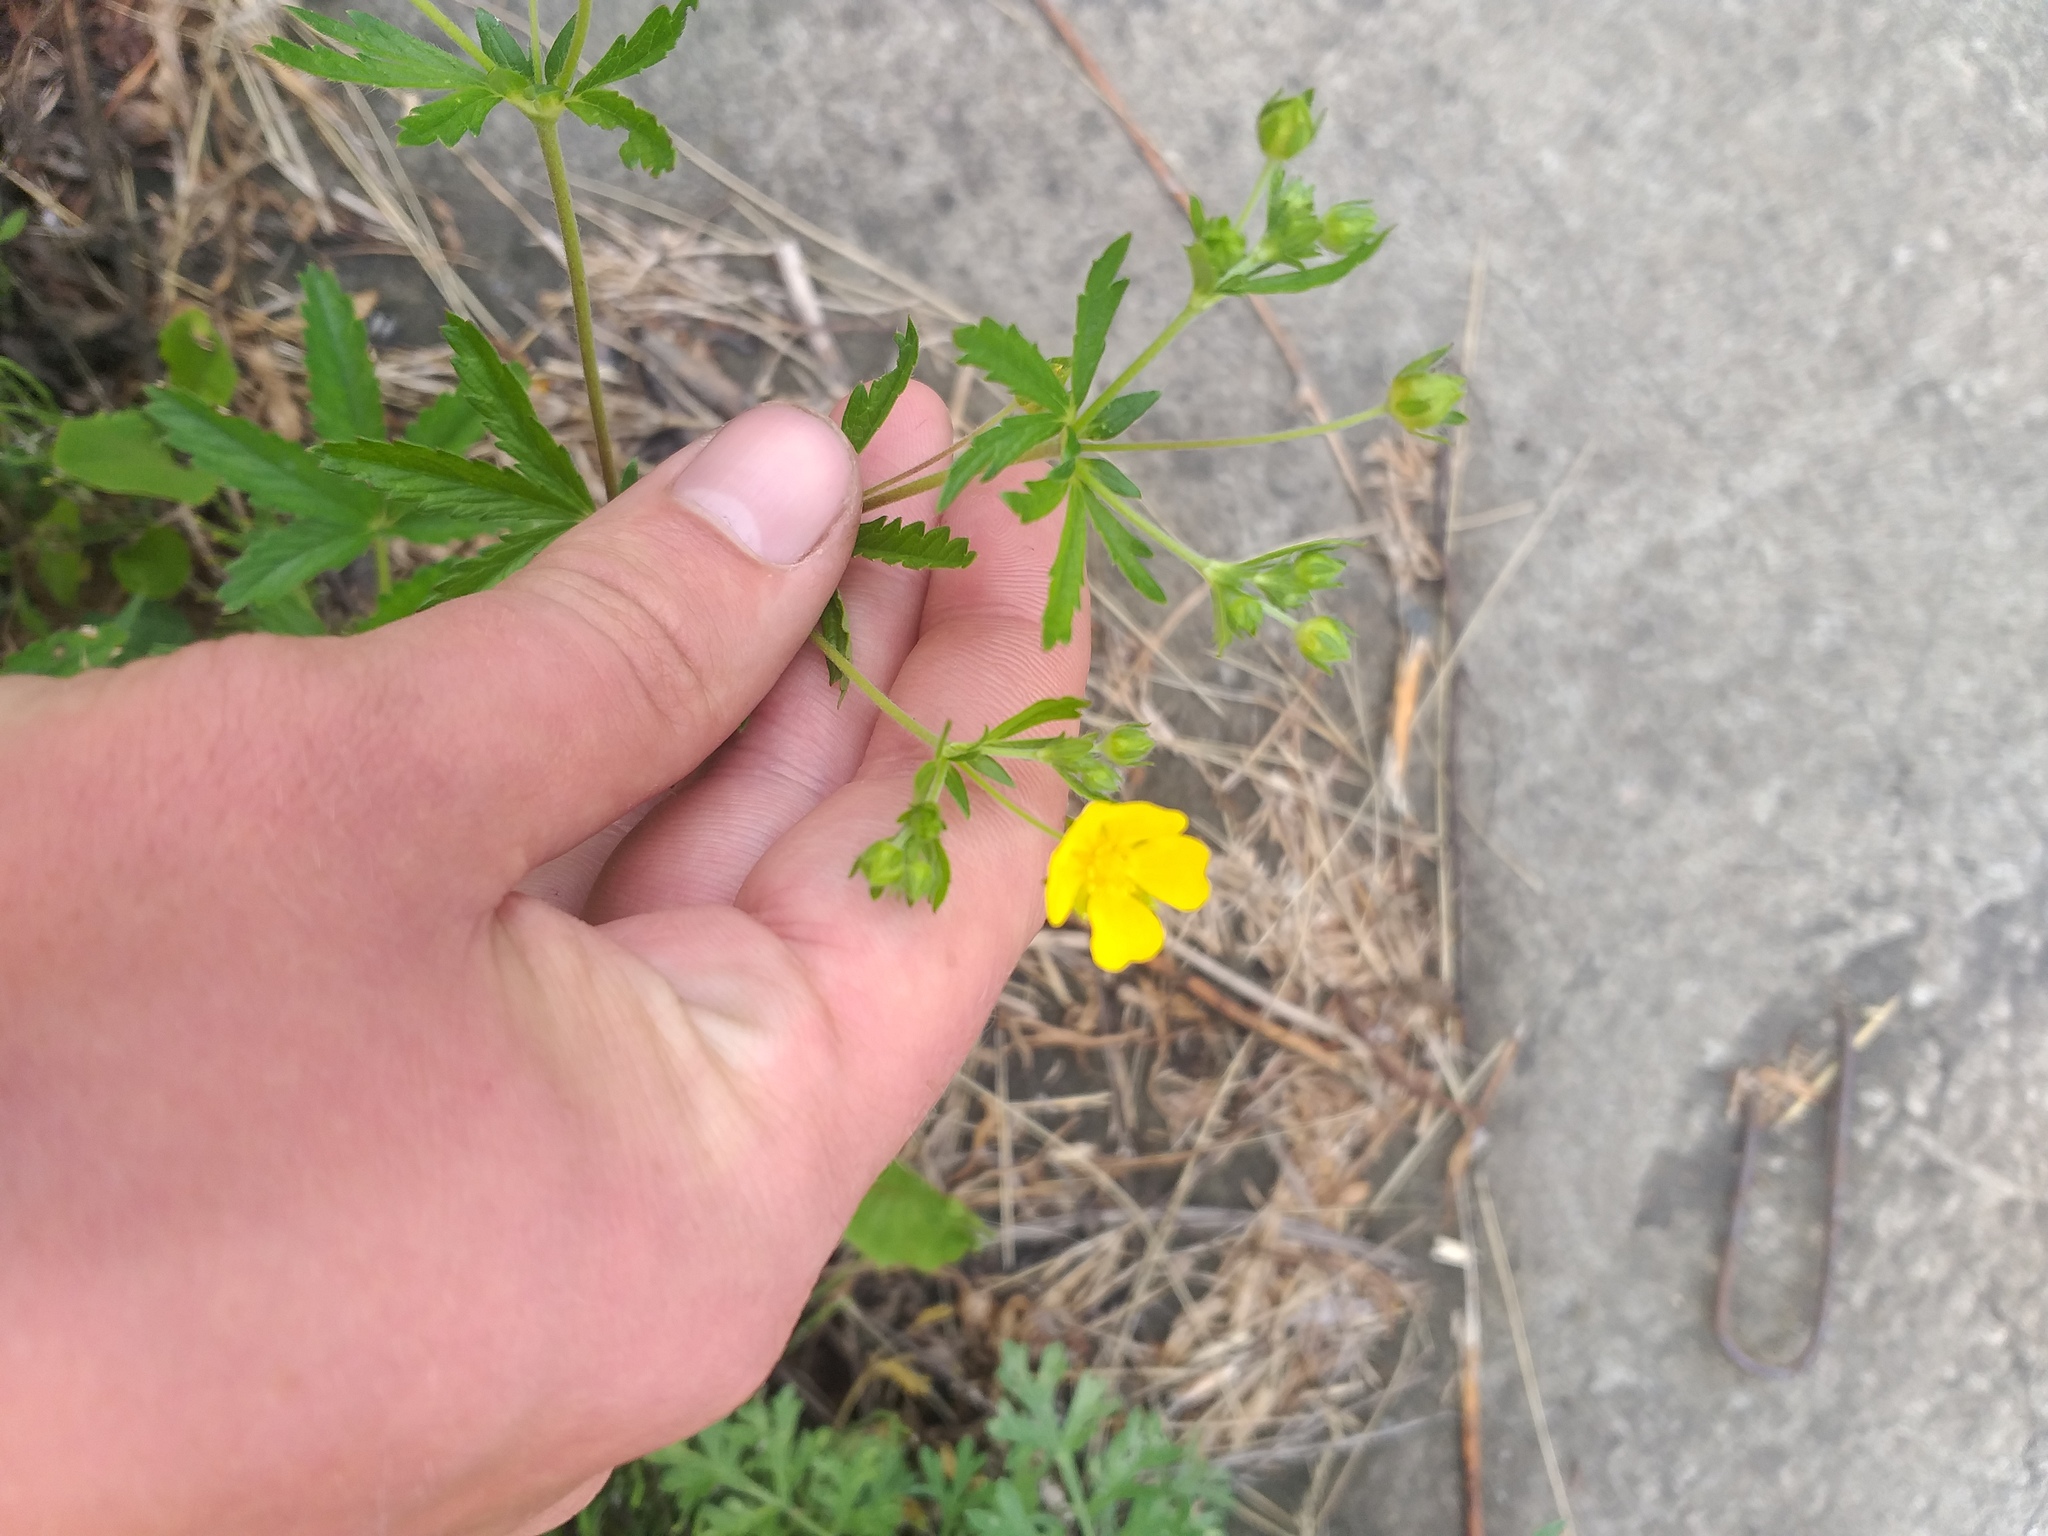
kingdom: Plantae
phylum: Tracheophyta
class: Magnoliopsida
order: Rosales
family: Rosaceae
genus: Potentilla
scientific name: Potentilla thuringiaca
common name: European cinquefoil
